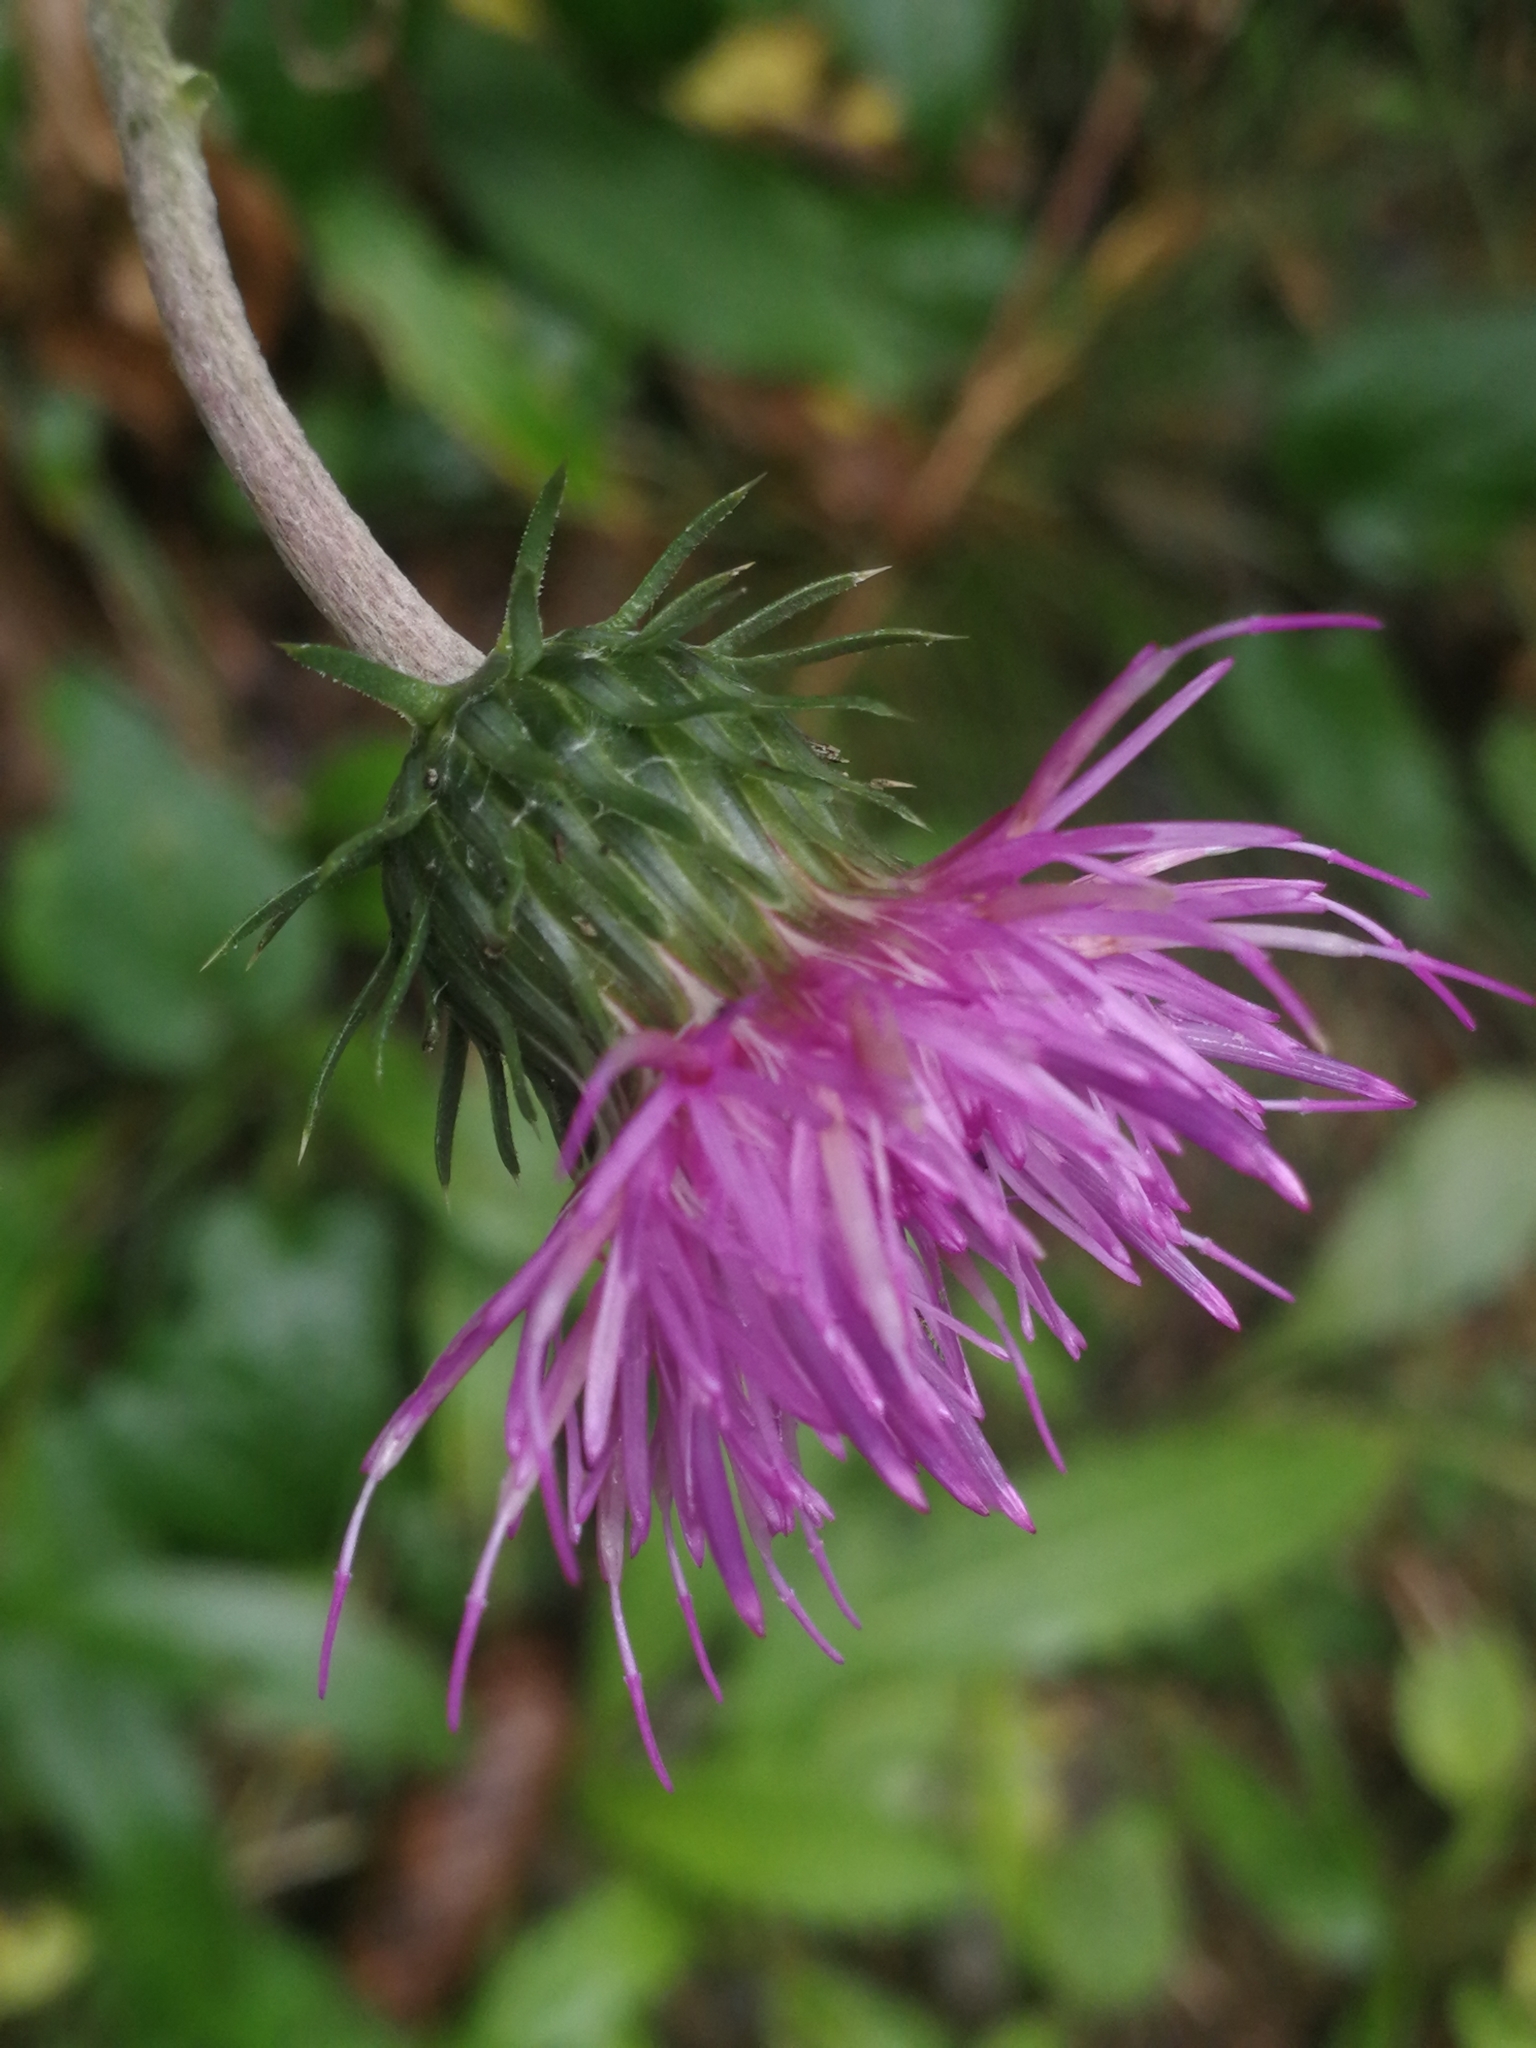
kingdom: Plantae
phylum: Tracheophyta
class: Magnoliopsida
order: Asterales
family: Asteraceae
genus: Carduus
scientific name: Carduus defloratus
